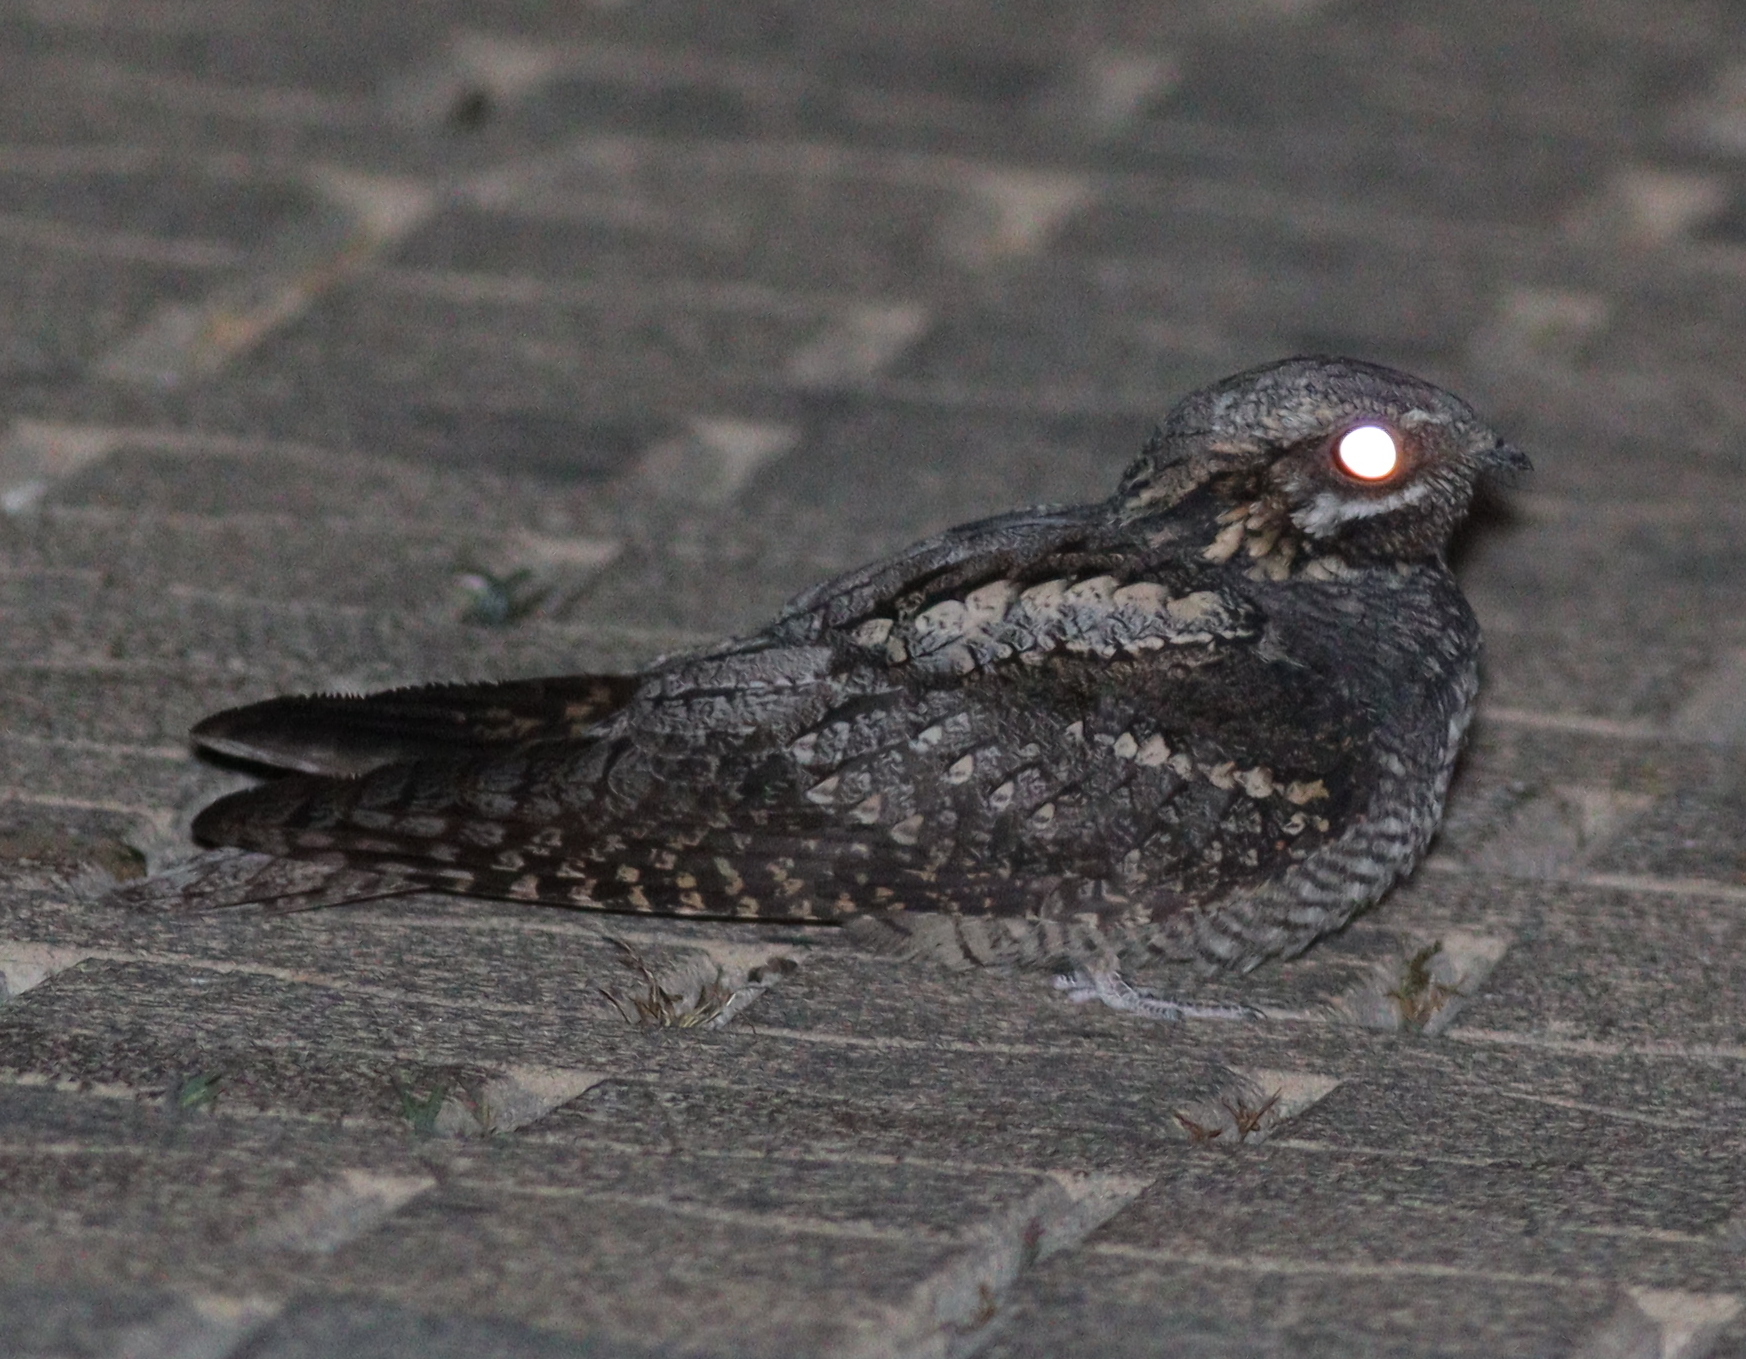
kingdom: Animalia
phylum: Chordata
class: Aves
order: Caprimulgiformes
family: Caprimulgidae
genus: Caprimulgus
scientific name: Caprimulgus europaeus
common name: European nightjar
